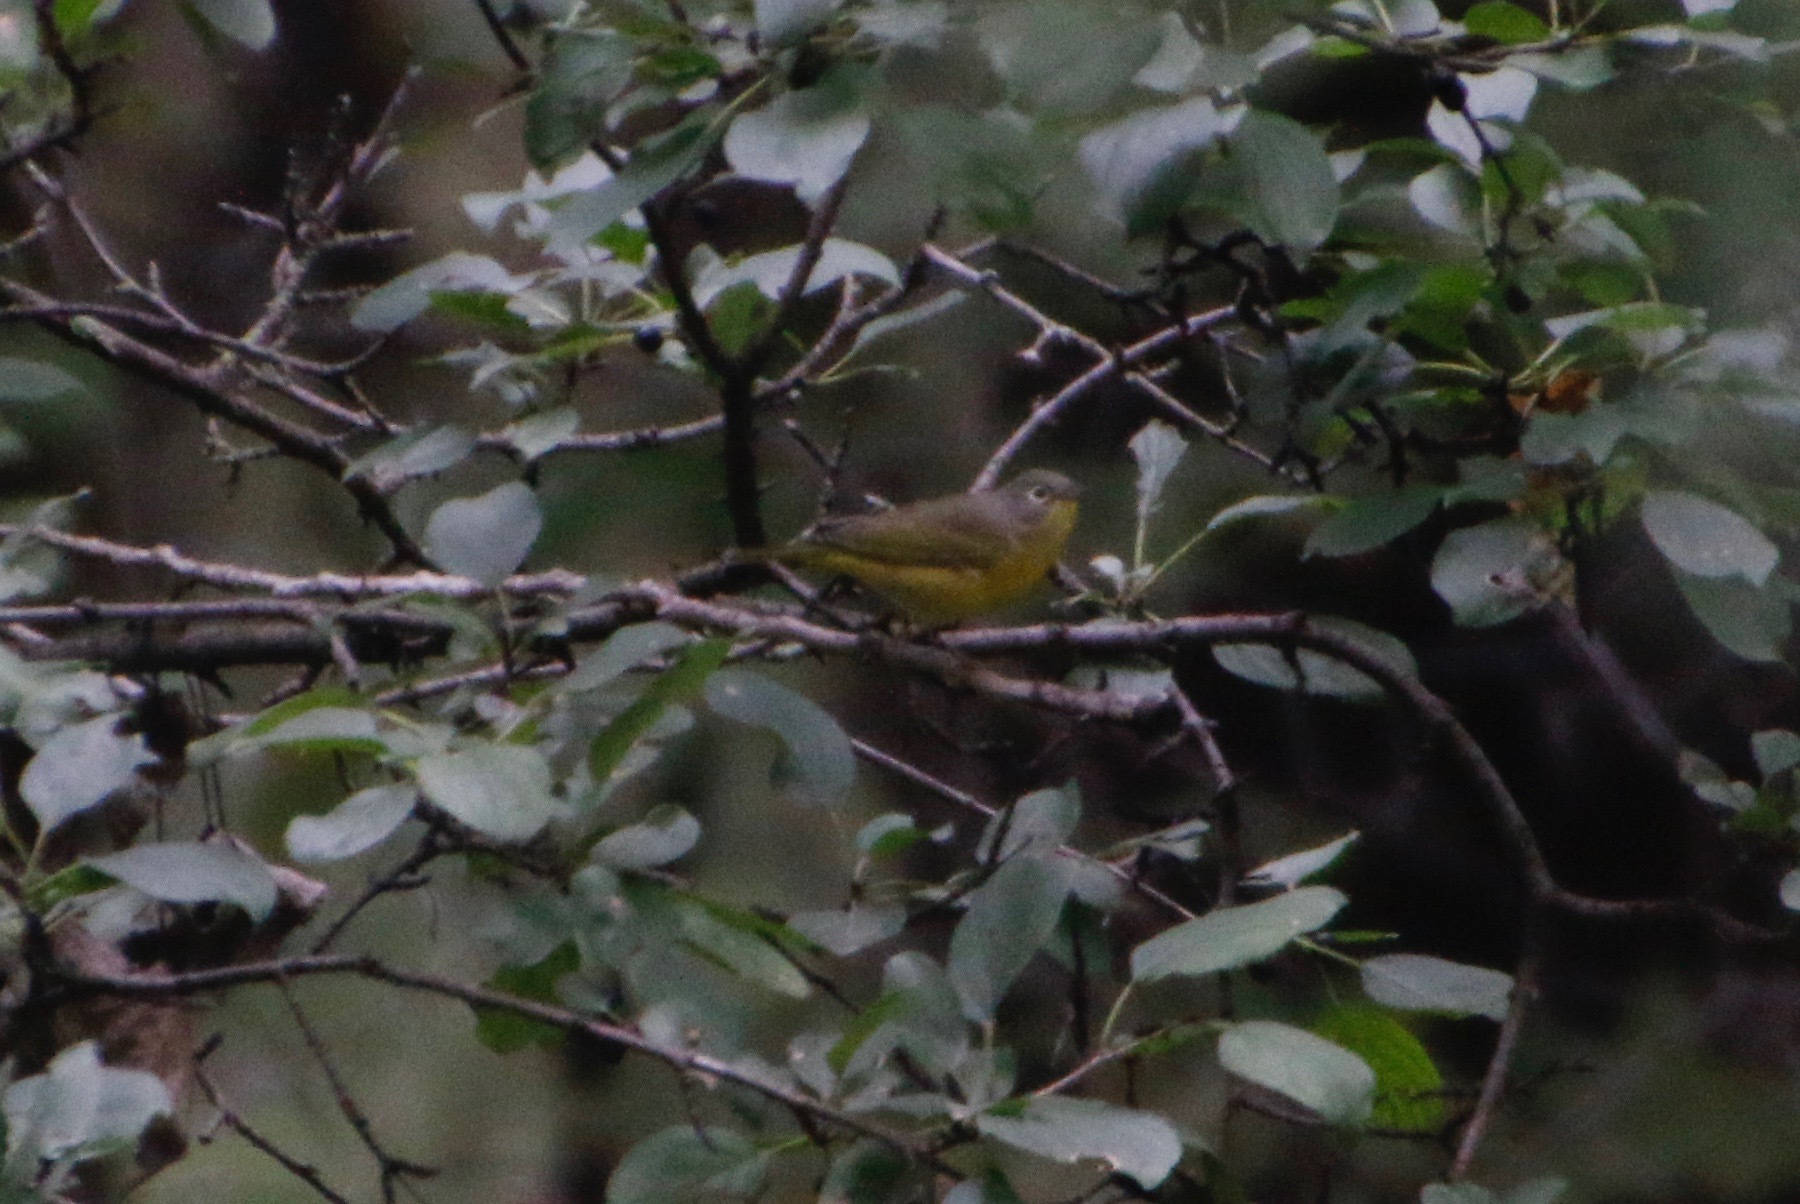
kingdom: Animalia
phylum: Chordata
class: Aves
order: Passeriformes
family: Parulidae
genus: Leiothlypis
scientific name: Leiothlypis ruficapilla
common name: Nashville warbler
